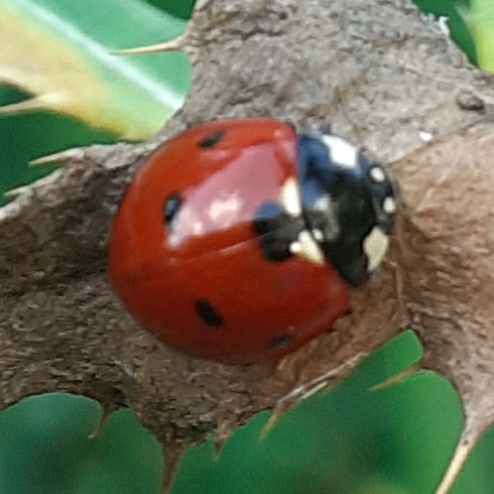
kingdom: Animalia
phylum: Arthropoda
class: Insecta
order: Coleoptera
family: Coccinellidae
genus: Coccinella
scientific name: Coccinella septempunctata
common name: Sevenspotted lady beetle
